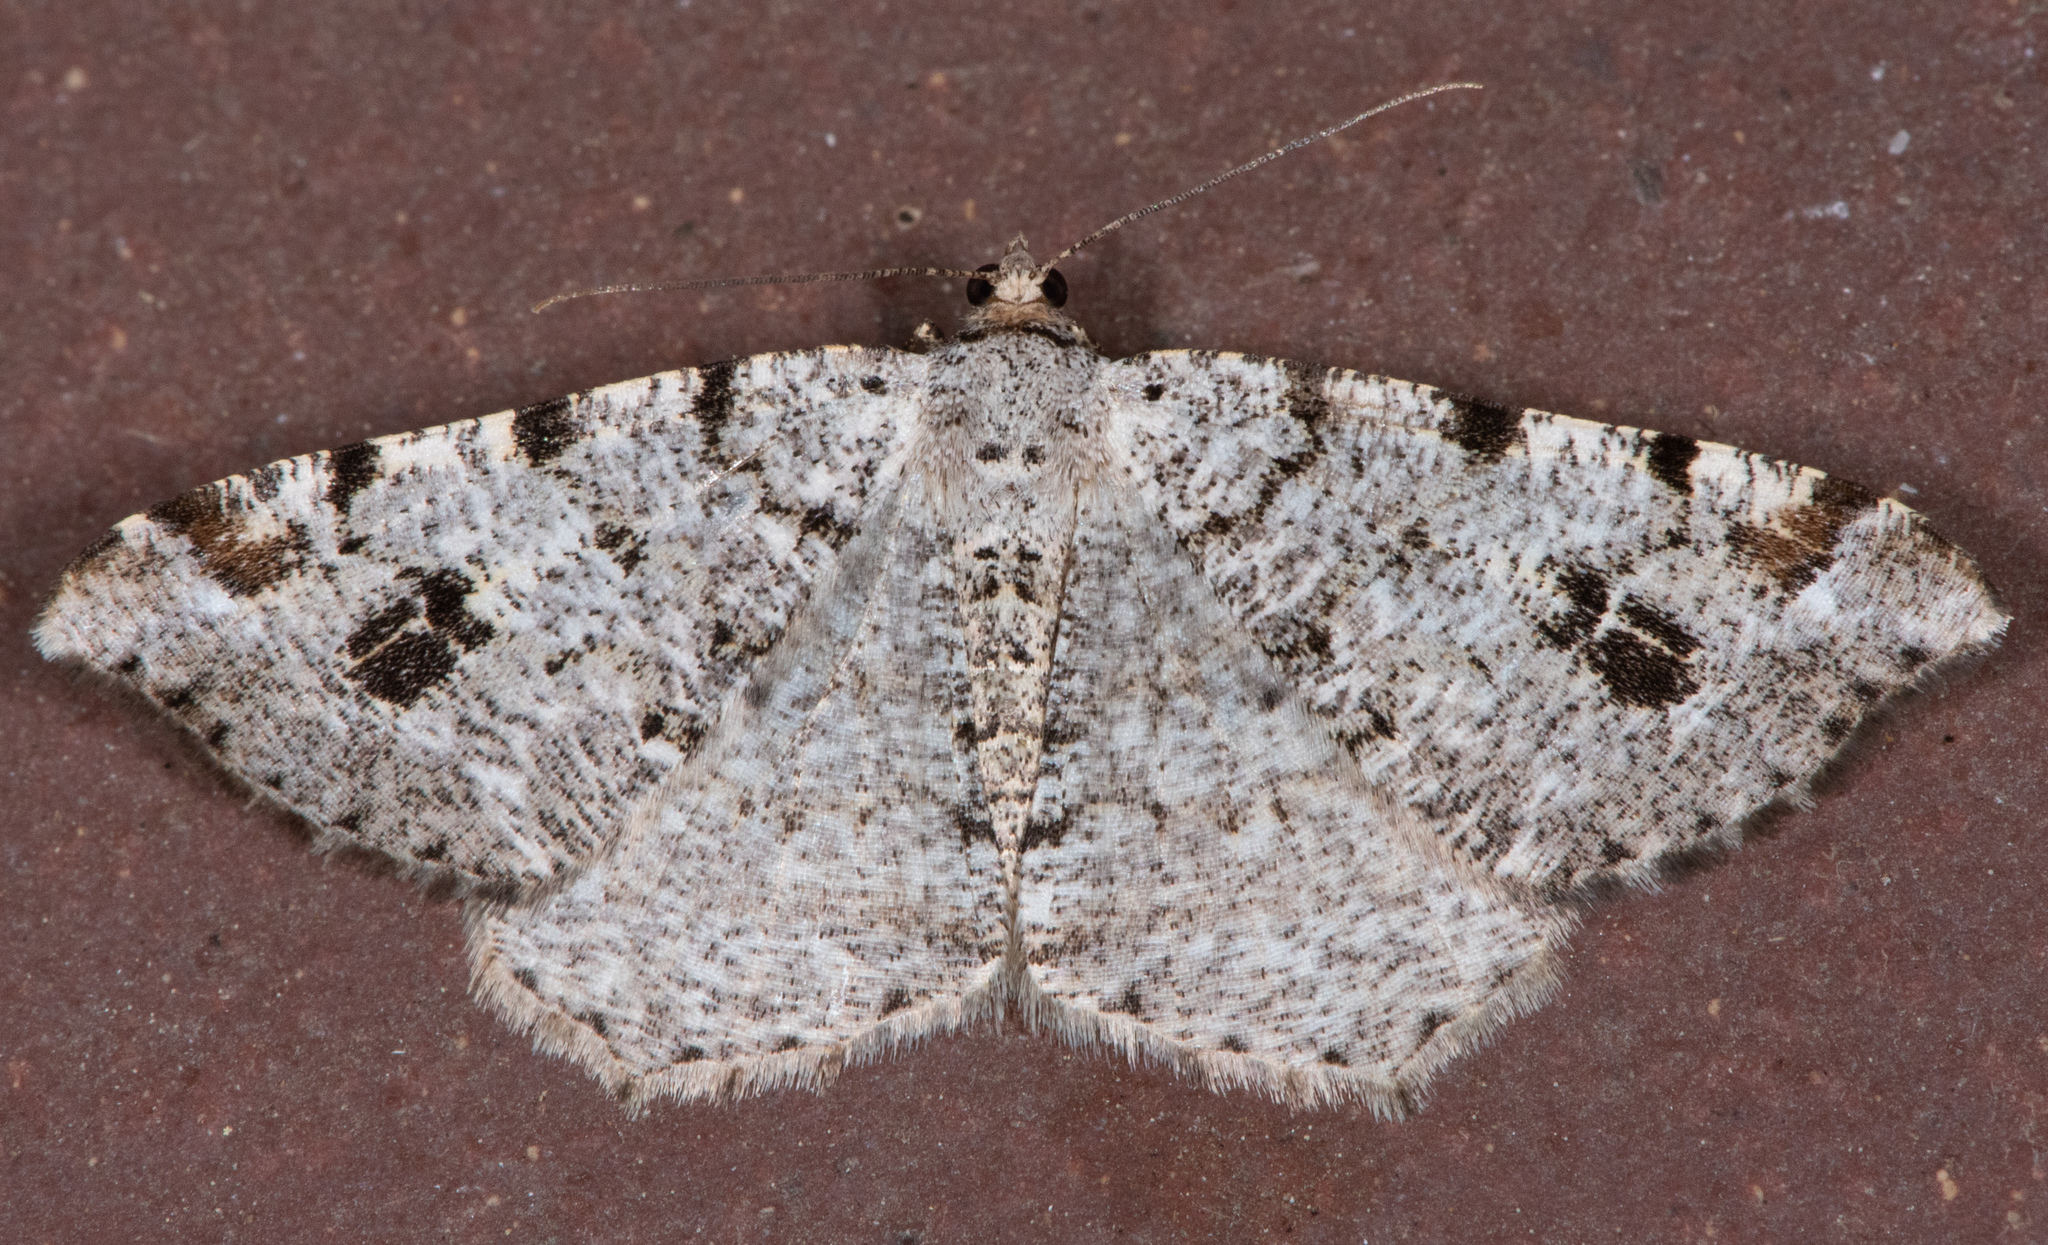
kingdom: Animalia
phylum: Arthropoda
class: Insecta
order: Lepidoptera
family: Geometridae
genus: Macaria
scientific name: Macaria signaria
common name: Dusky peacock
